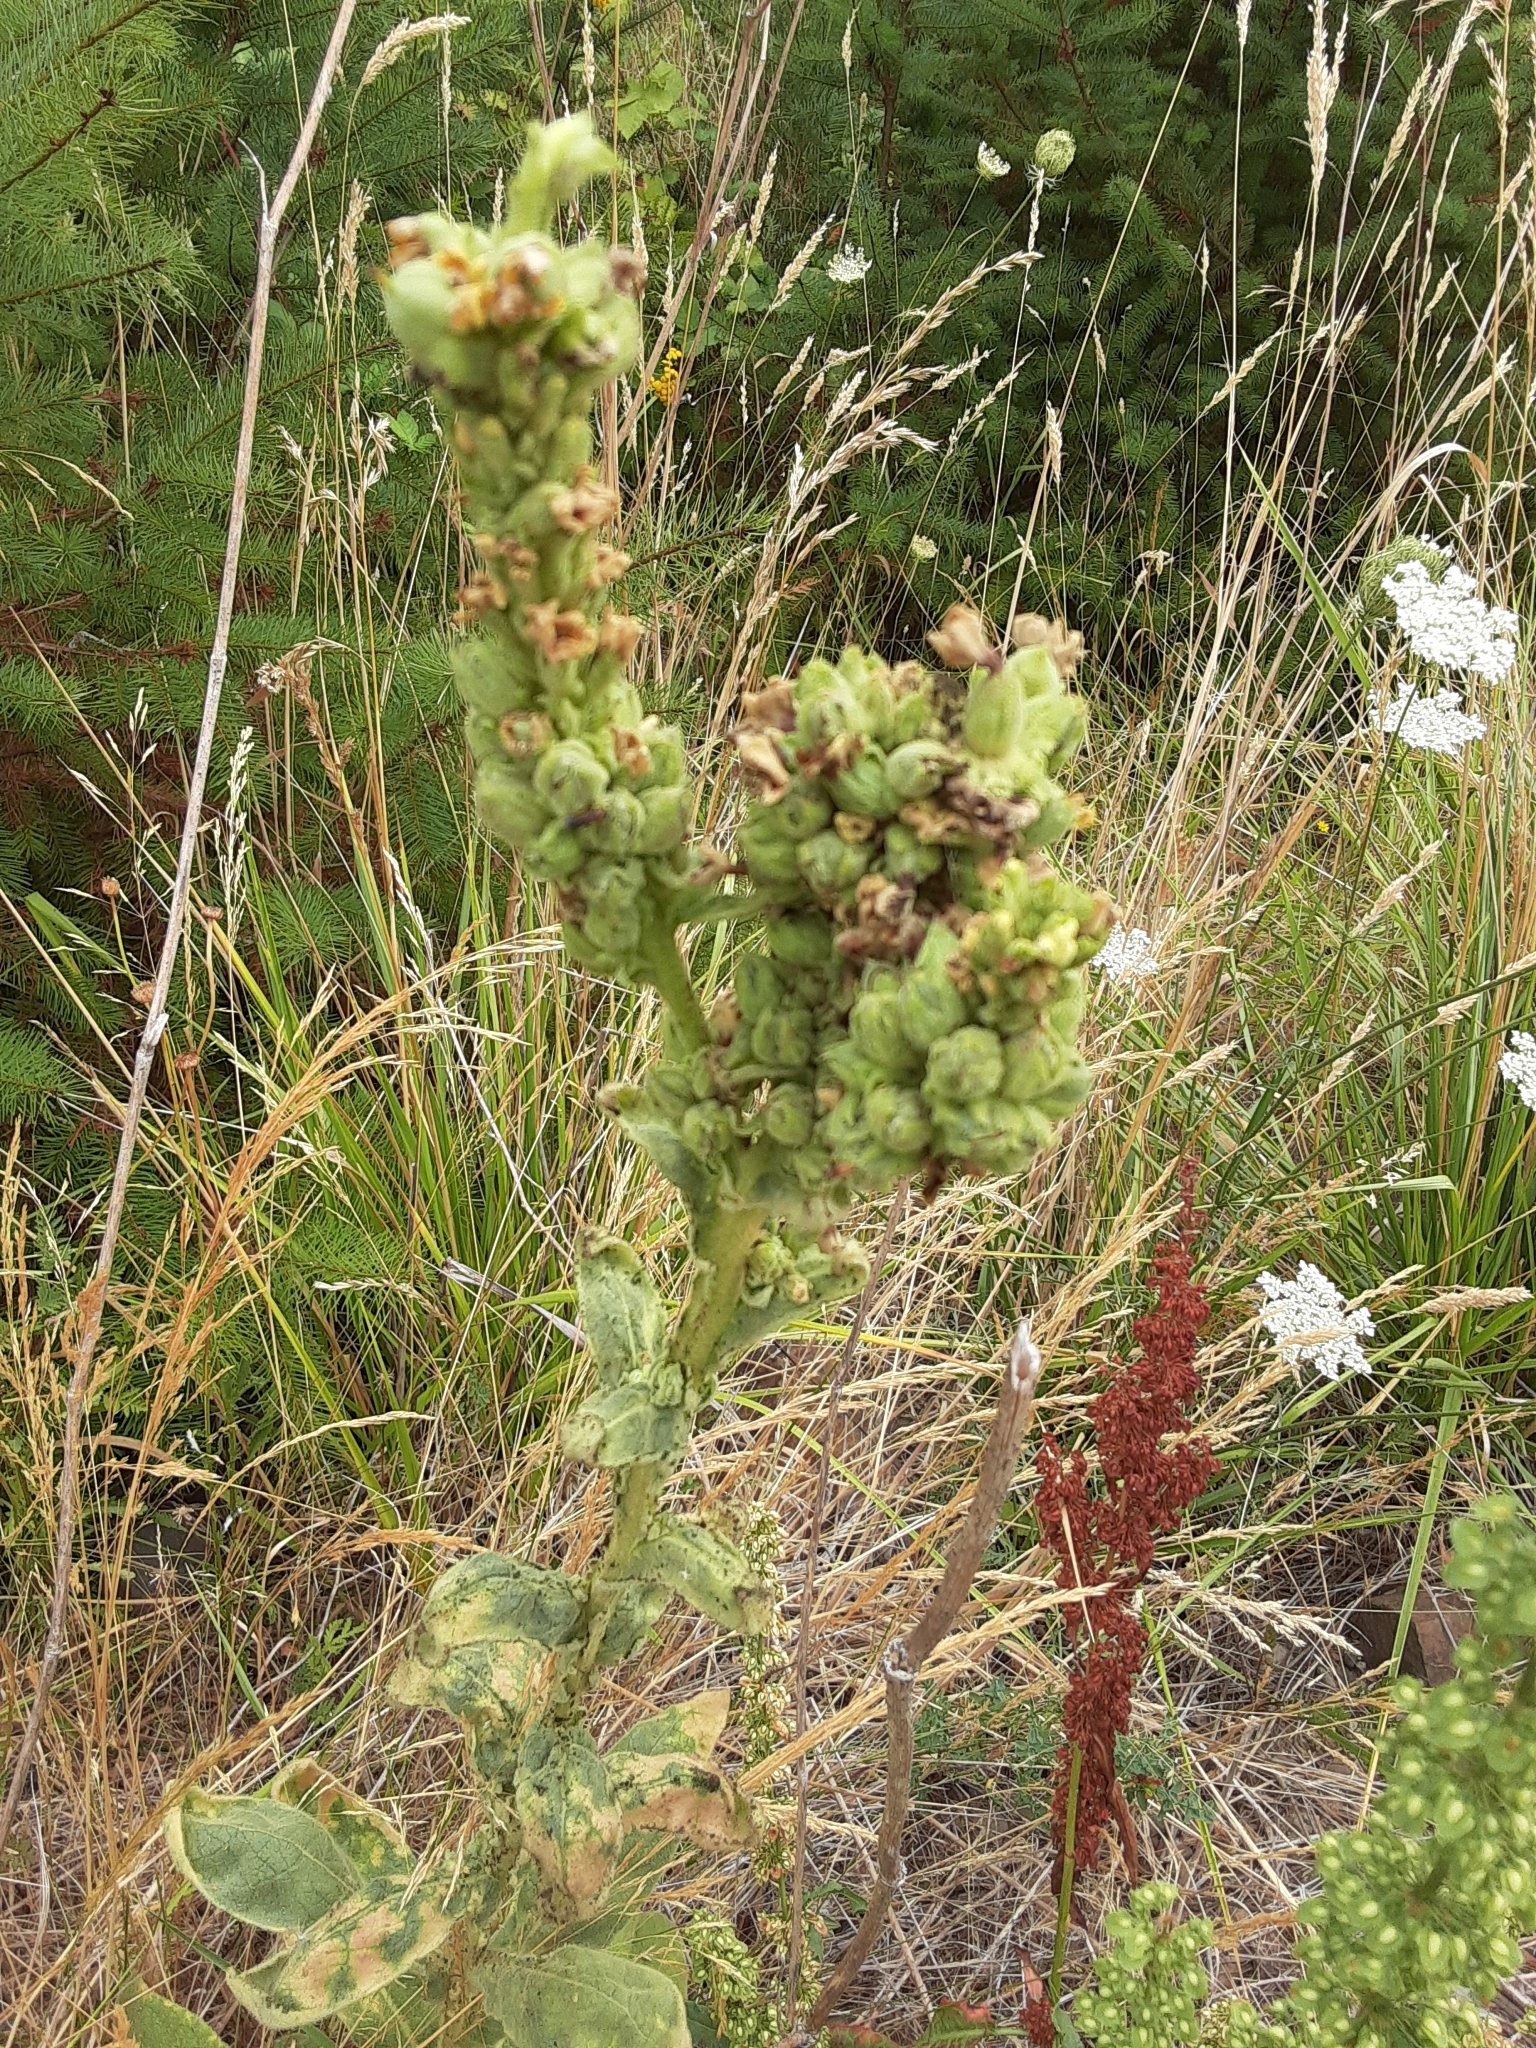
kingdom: Plantae
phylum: Tracheophyta
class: Magnoliopsida
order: Lamiales
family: Scrophulariaceae
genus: Verbascum
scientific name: Verbascum thapsus
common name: Common mullein
